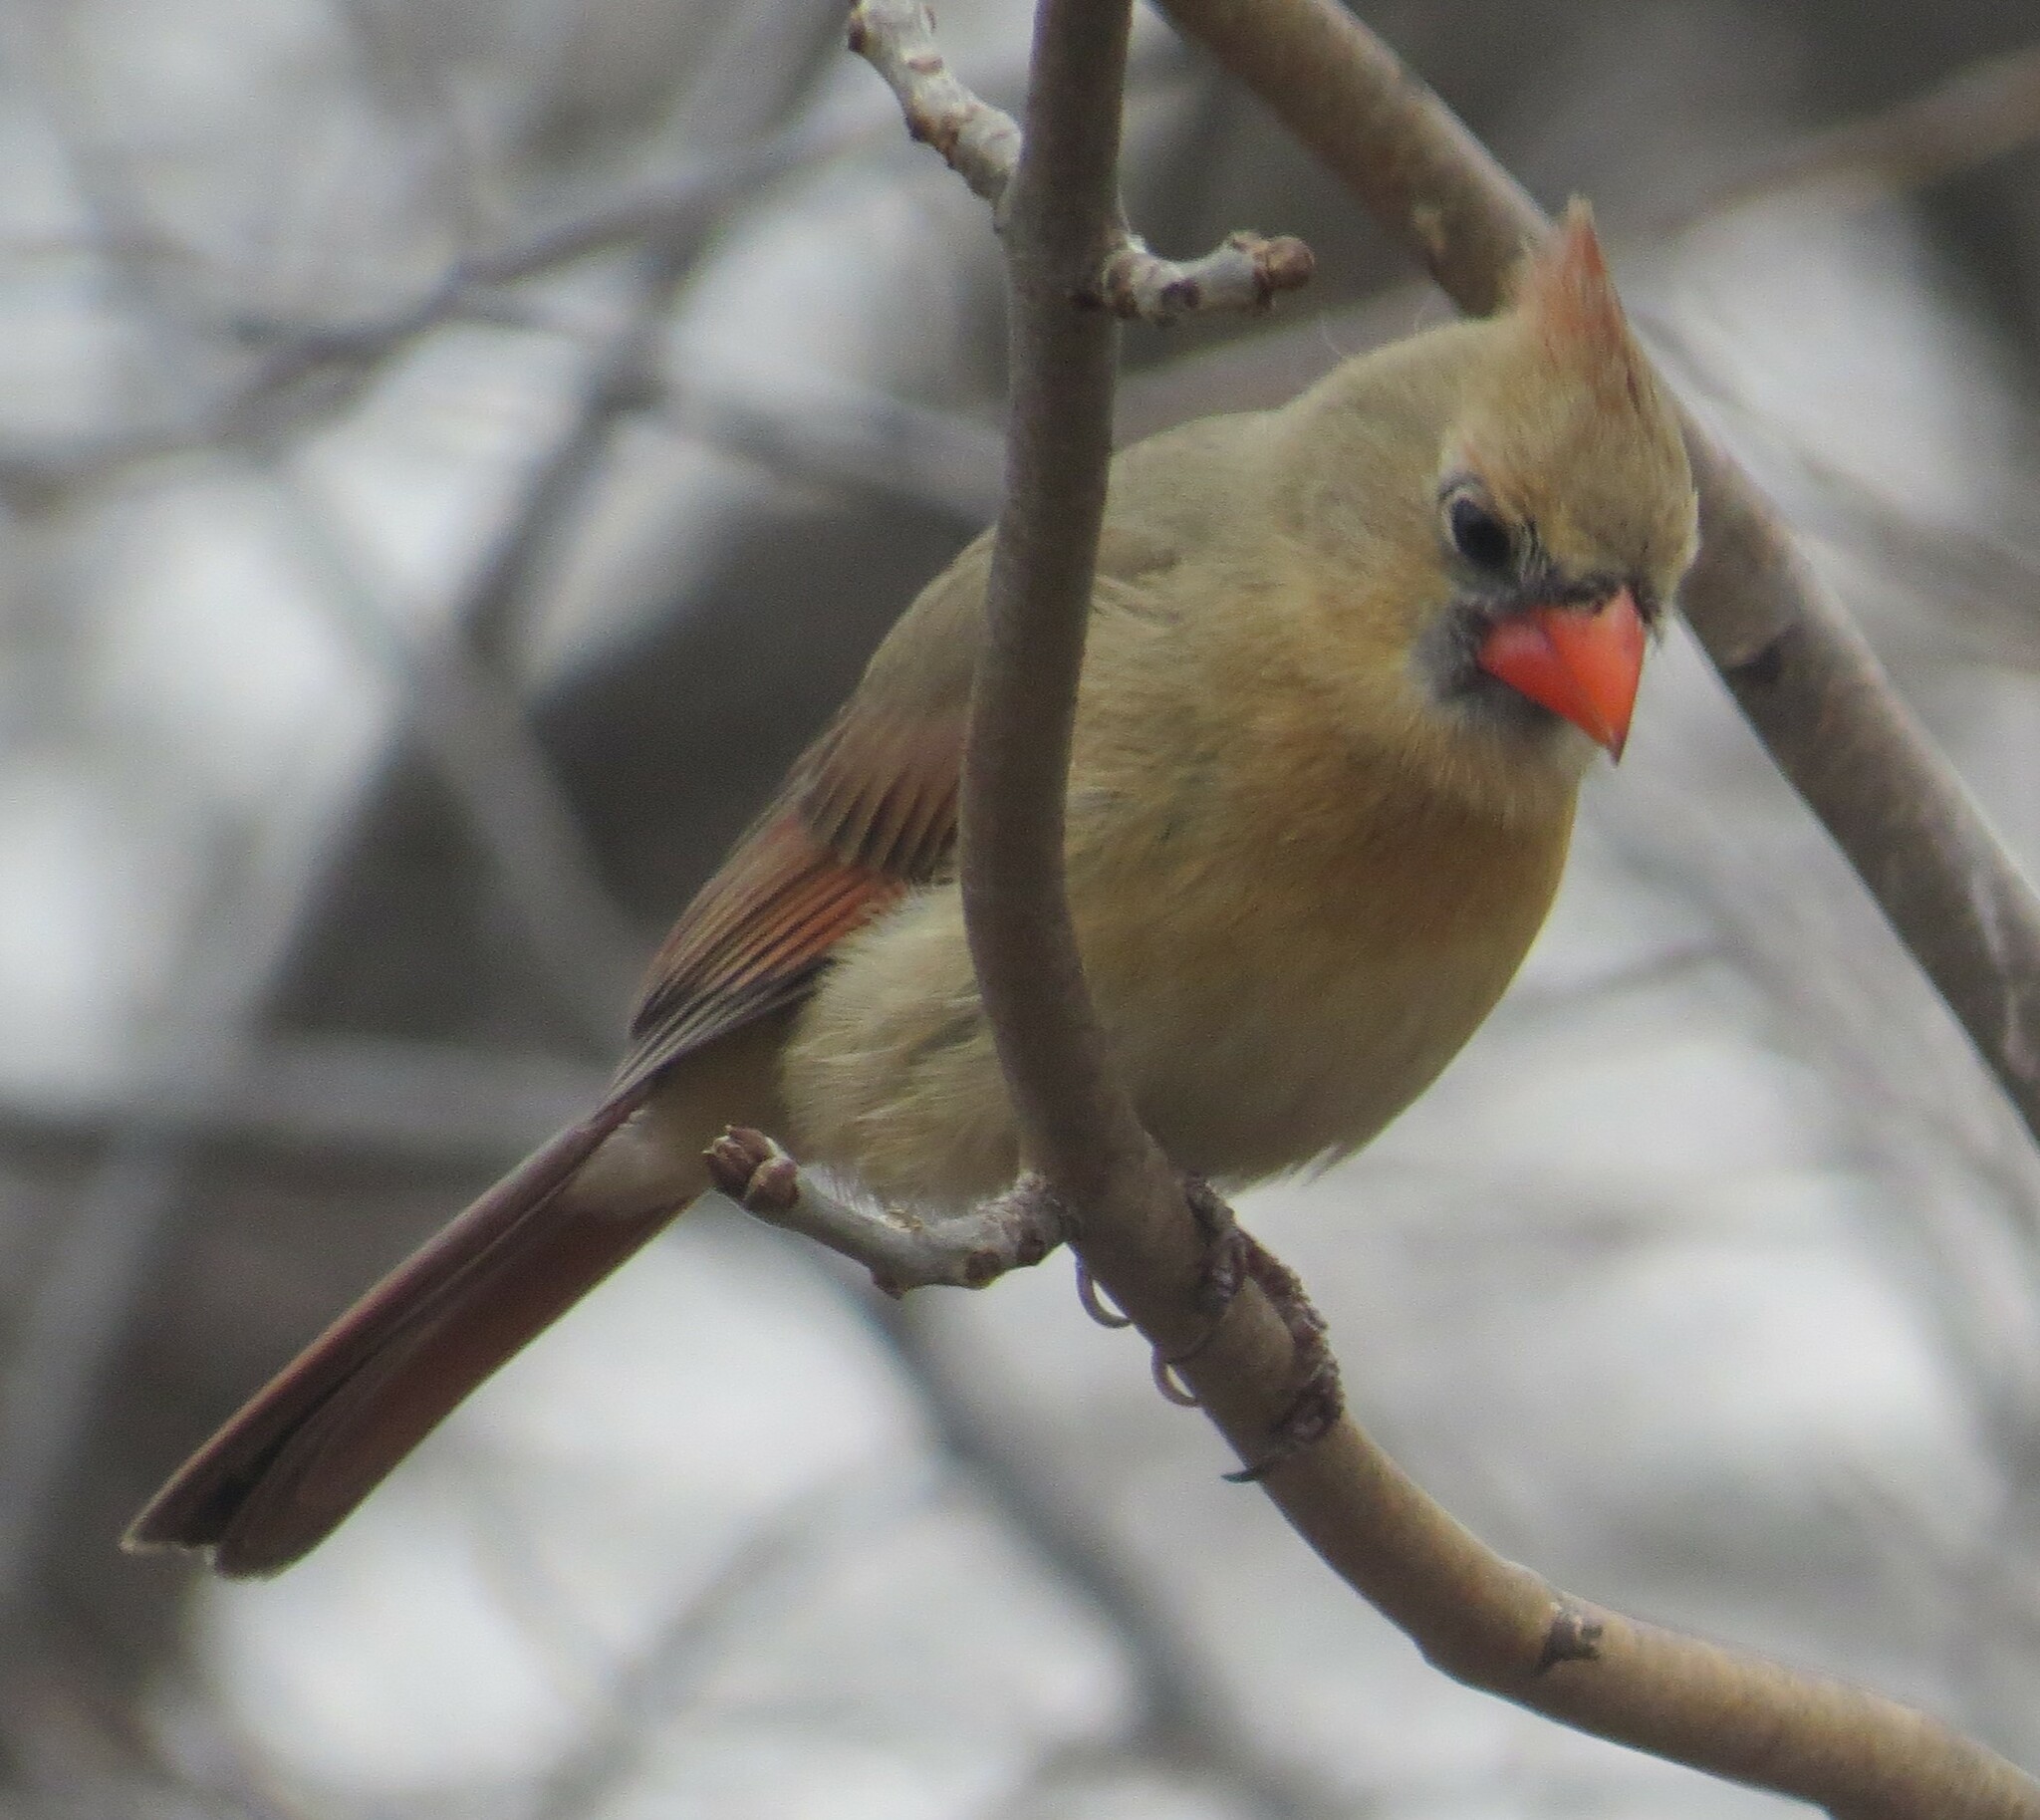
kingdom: Animalia
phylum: Chordata
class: Aves
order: Passeriformes
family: Cardinalidae
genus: Cardinalis
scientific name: Cardinalis cardinalis
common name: Northern cardinal
